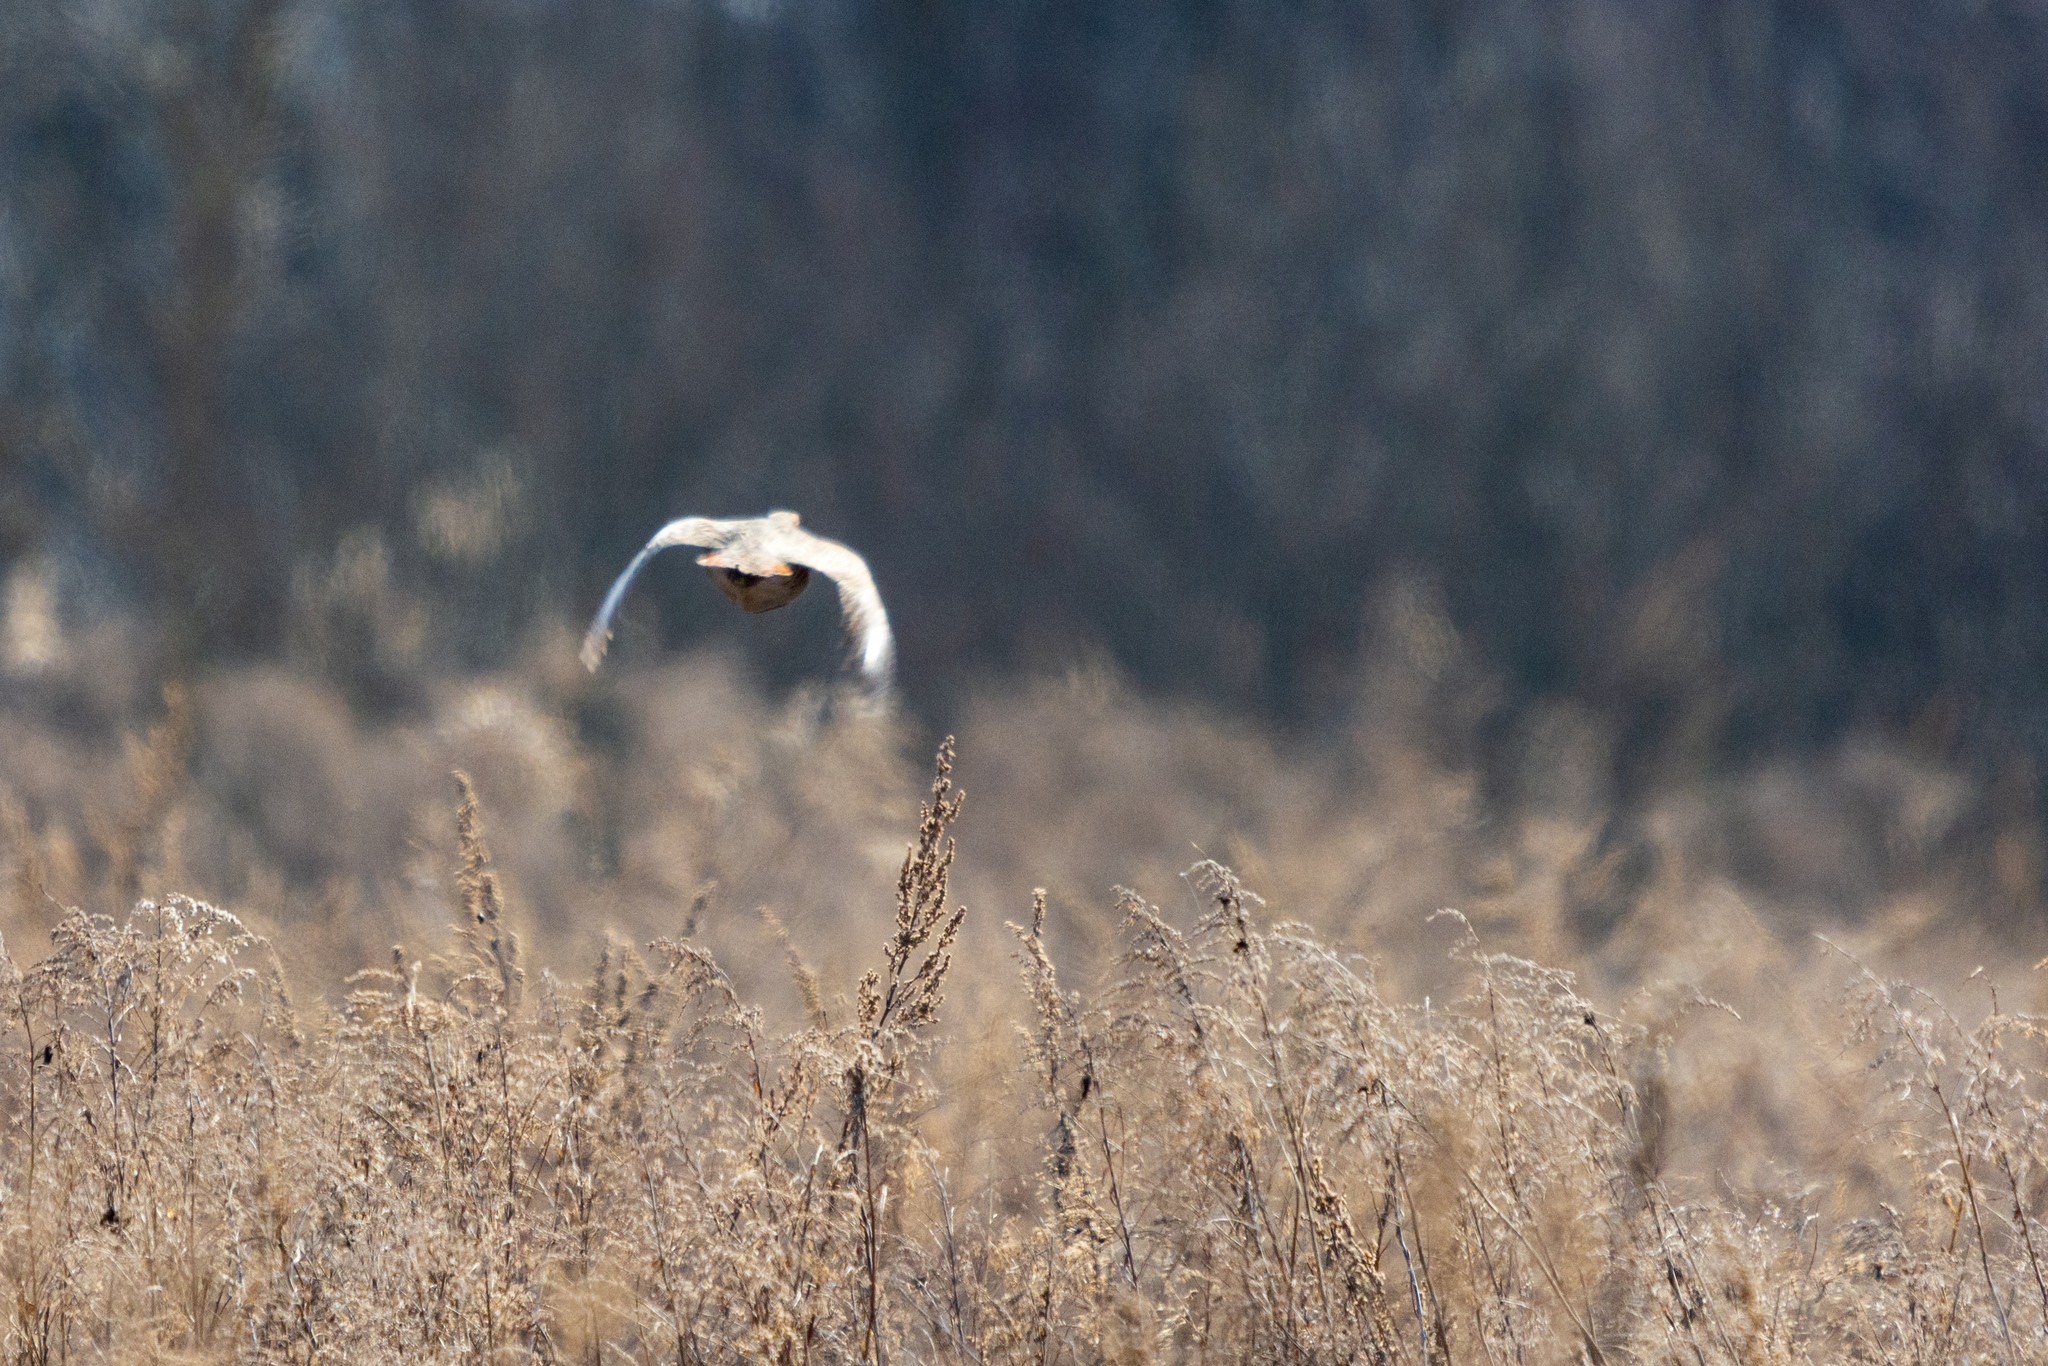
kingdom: Animalia
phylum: Chordata
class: Aves
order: Galliformes
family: Phasianidae
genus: Perdix
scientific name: Perdix perdix
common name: Grey partridge
